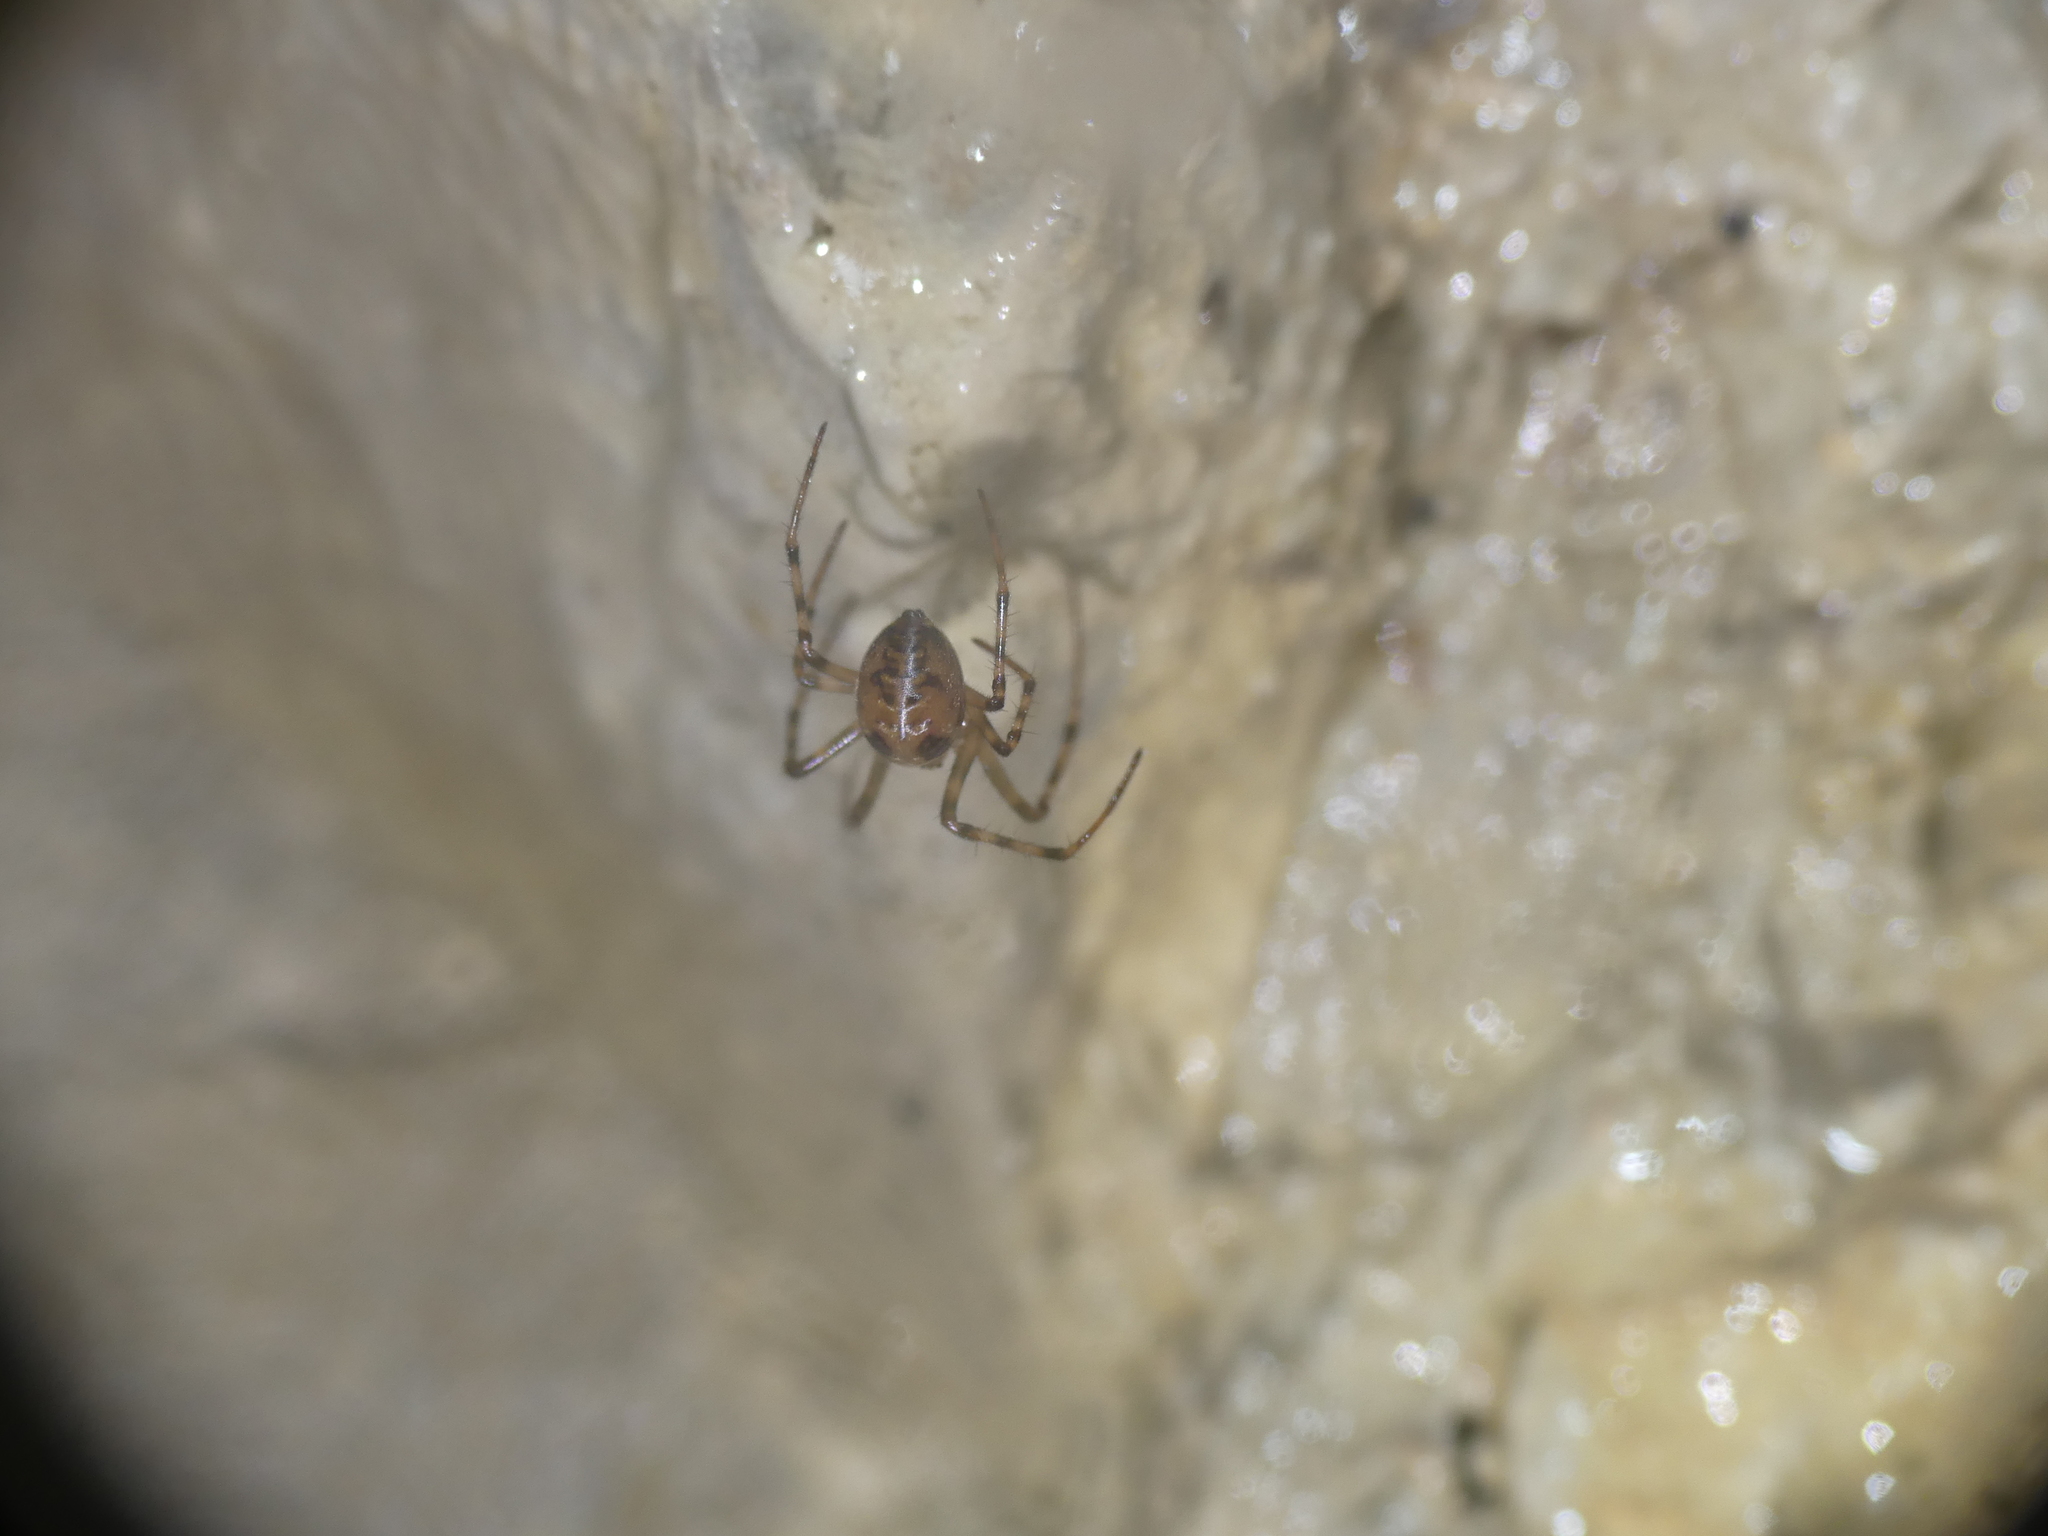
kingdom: Animalia
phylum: Arthropoda
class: Arachnida
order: Araneae
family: Tetragnathidae
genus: Meta
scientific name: Meta menardi
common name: Cave spider
